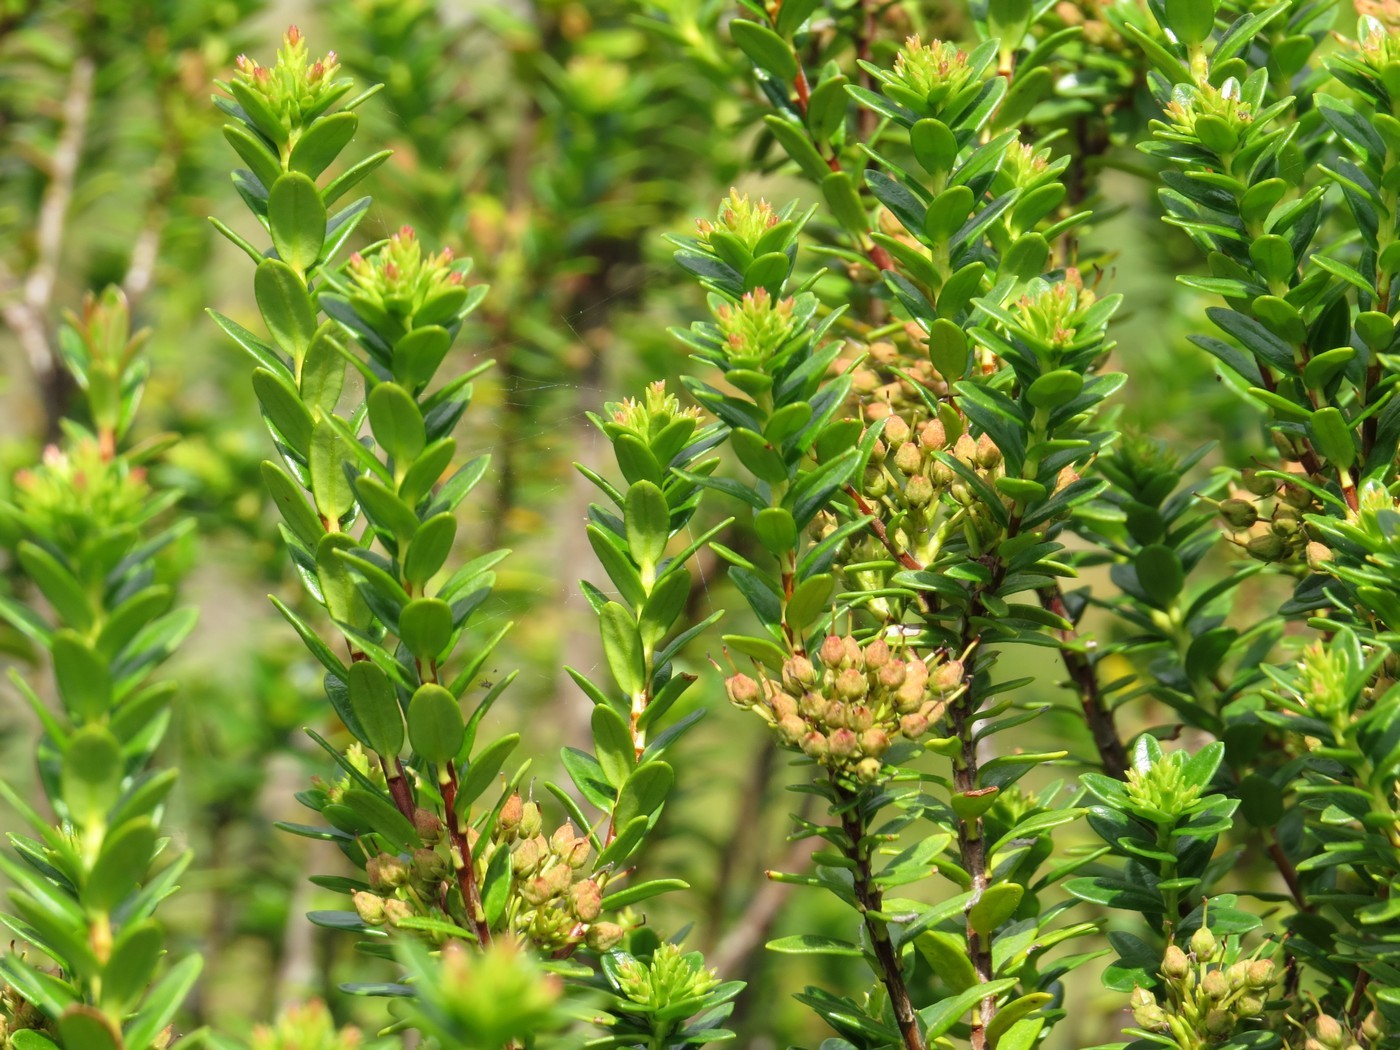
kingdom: Plantae
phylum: Tracheophyta
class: Magnoliopsida
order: Ericales
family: Ericaceae
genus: Kalmia
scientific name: Kalmia buxifolia
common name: Sandmyrtle
